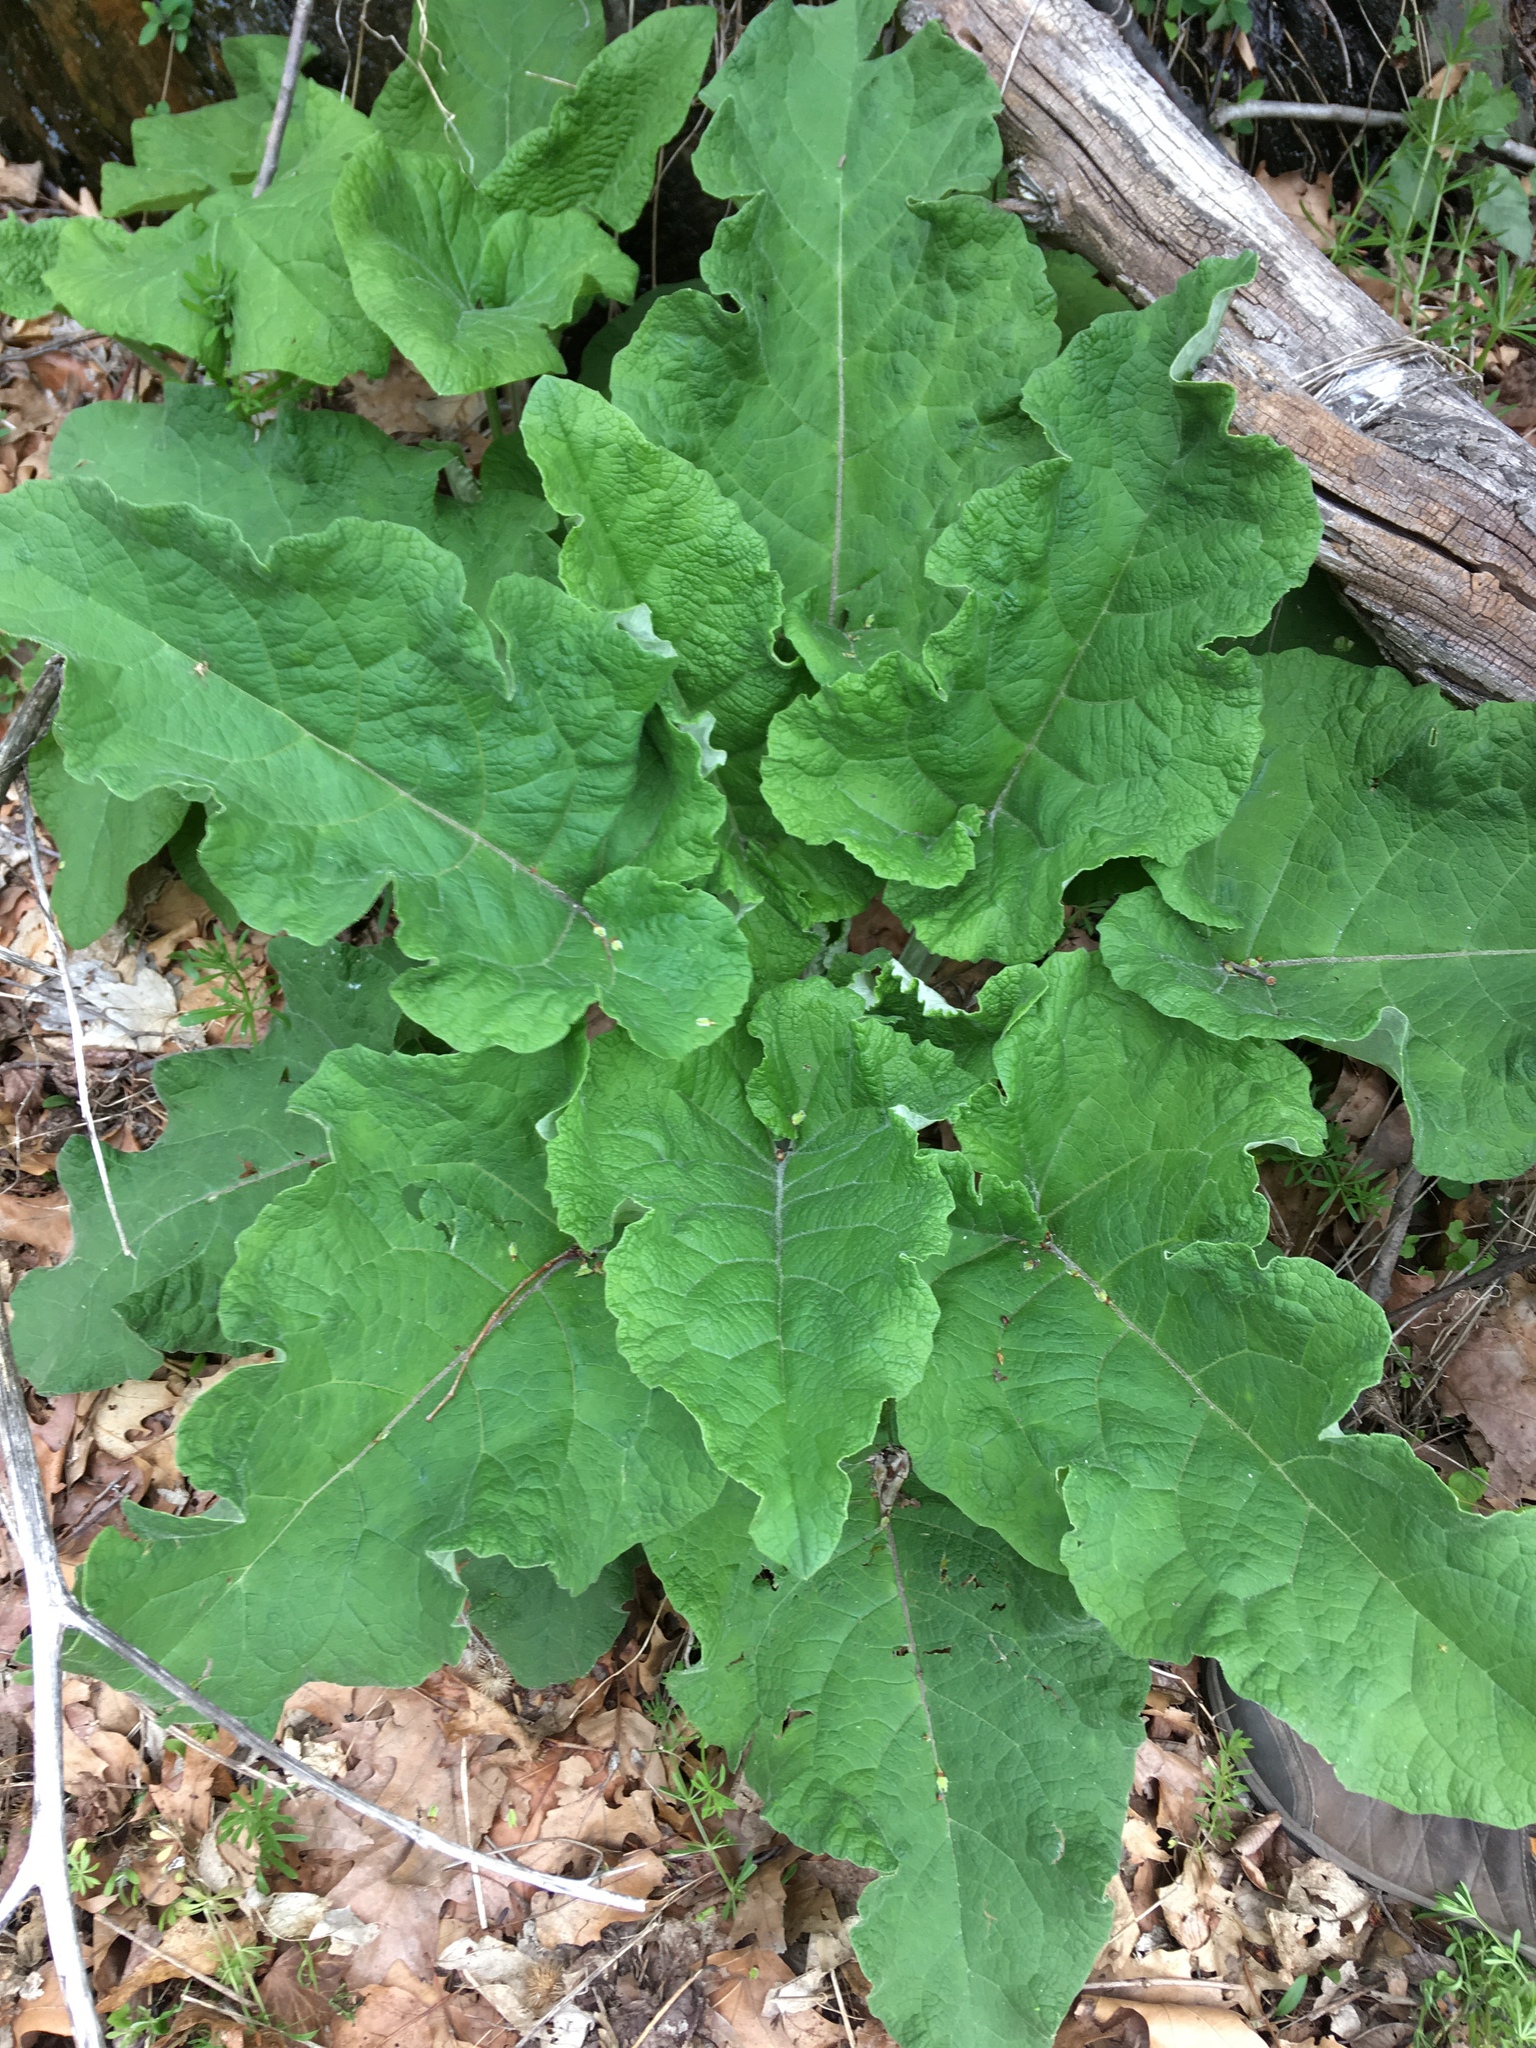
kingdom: Plantae
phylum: Tracheophyta
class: Magnoliopsida
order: Asterales
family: Asteraceae
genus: Arctium
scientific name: Arctium
